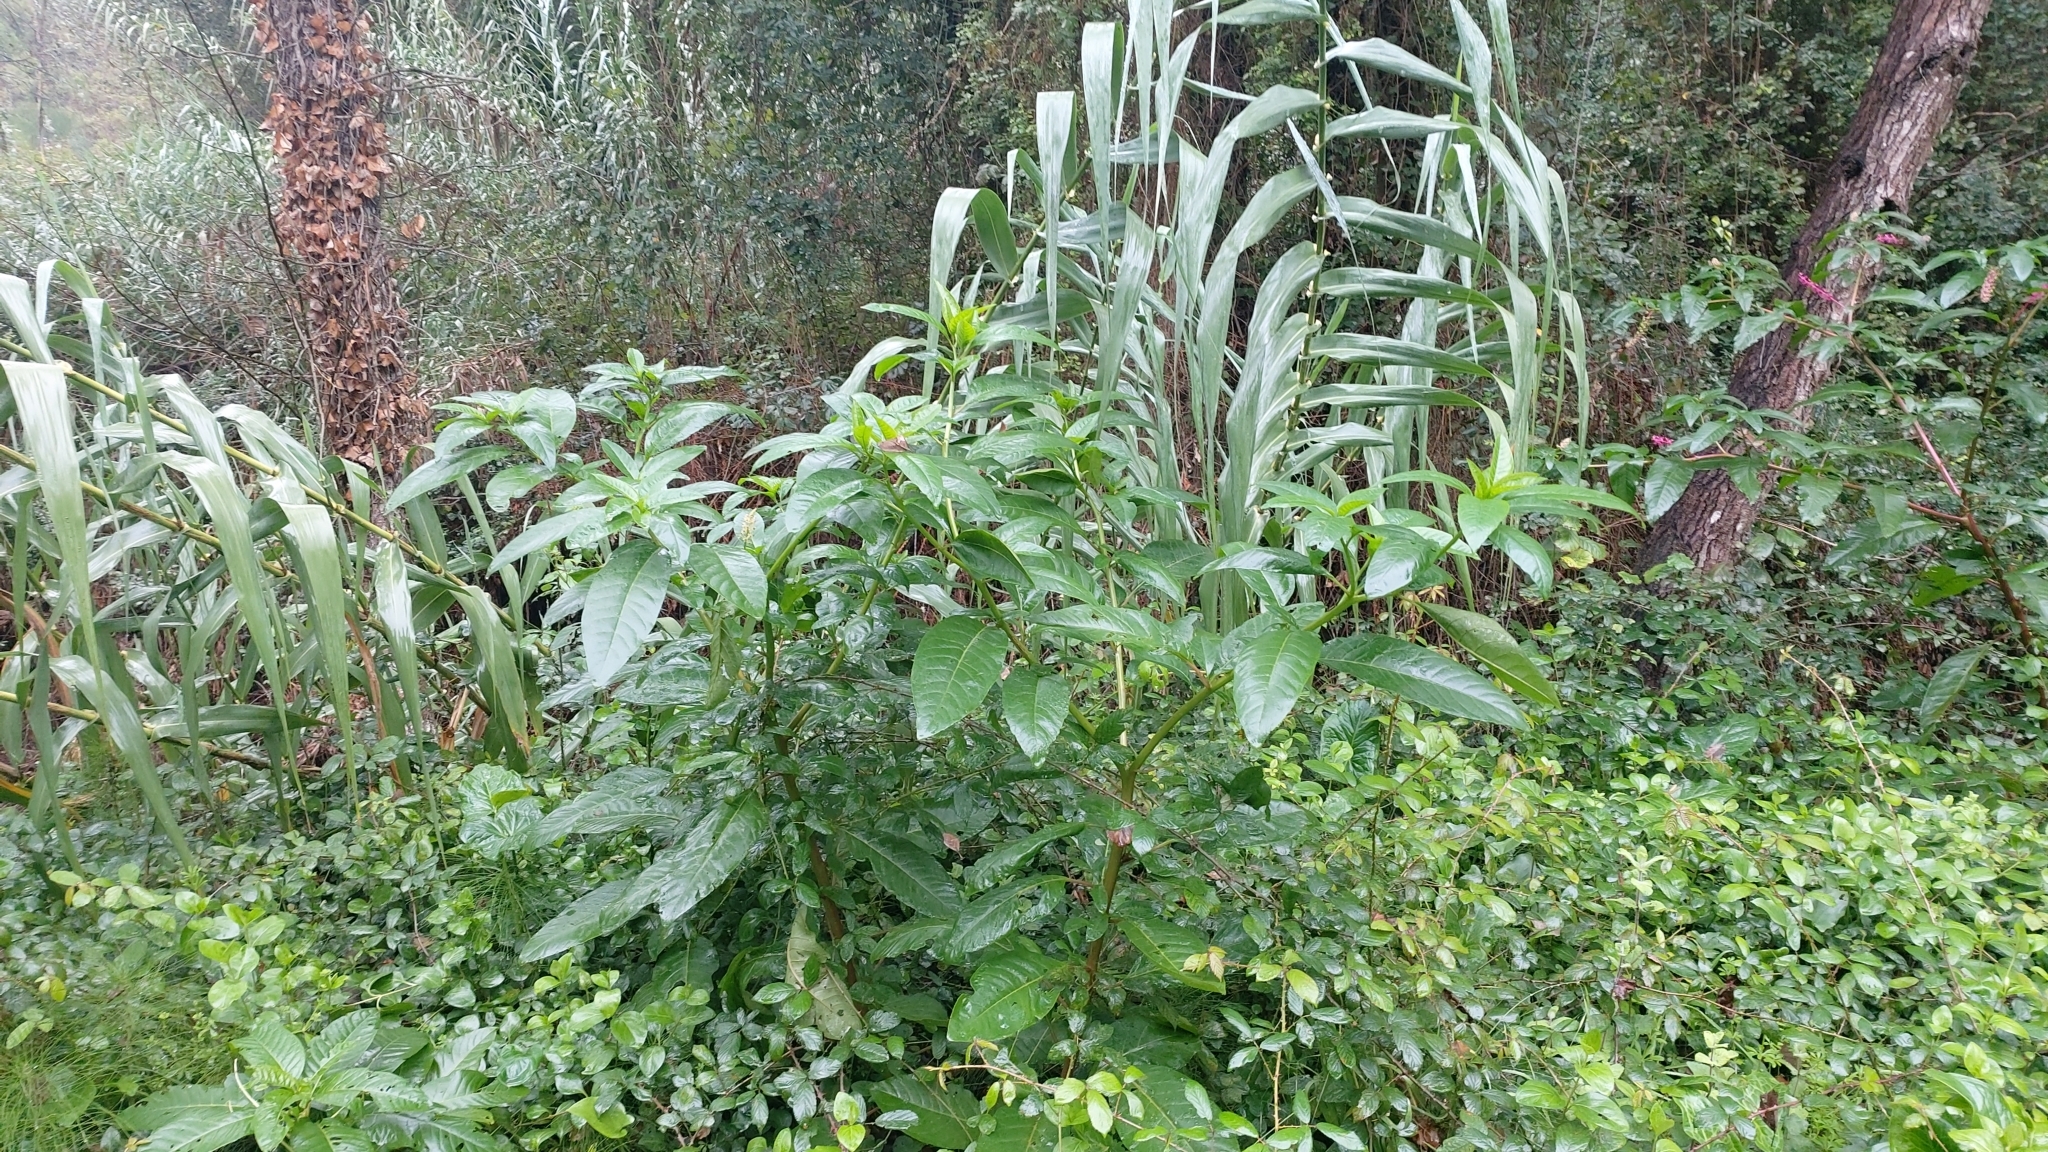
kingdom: Plantae
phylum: Tracheophyta
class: Magnoliopsida
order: Caryophyllales
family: Phytolaccaceae
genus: Phytolacca
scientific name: Phytolacca americana
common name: American pokeweed
